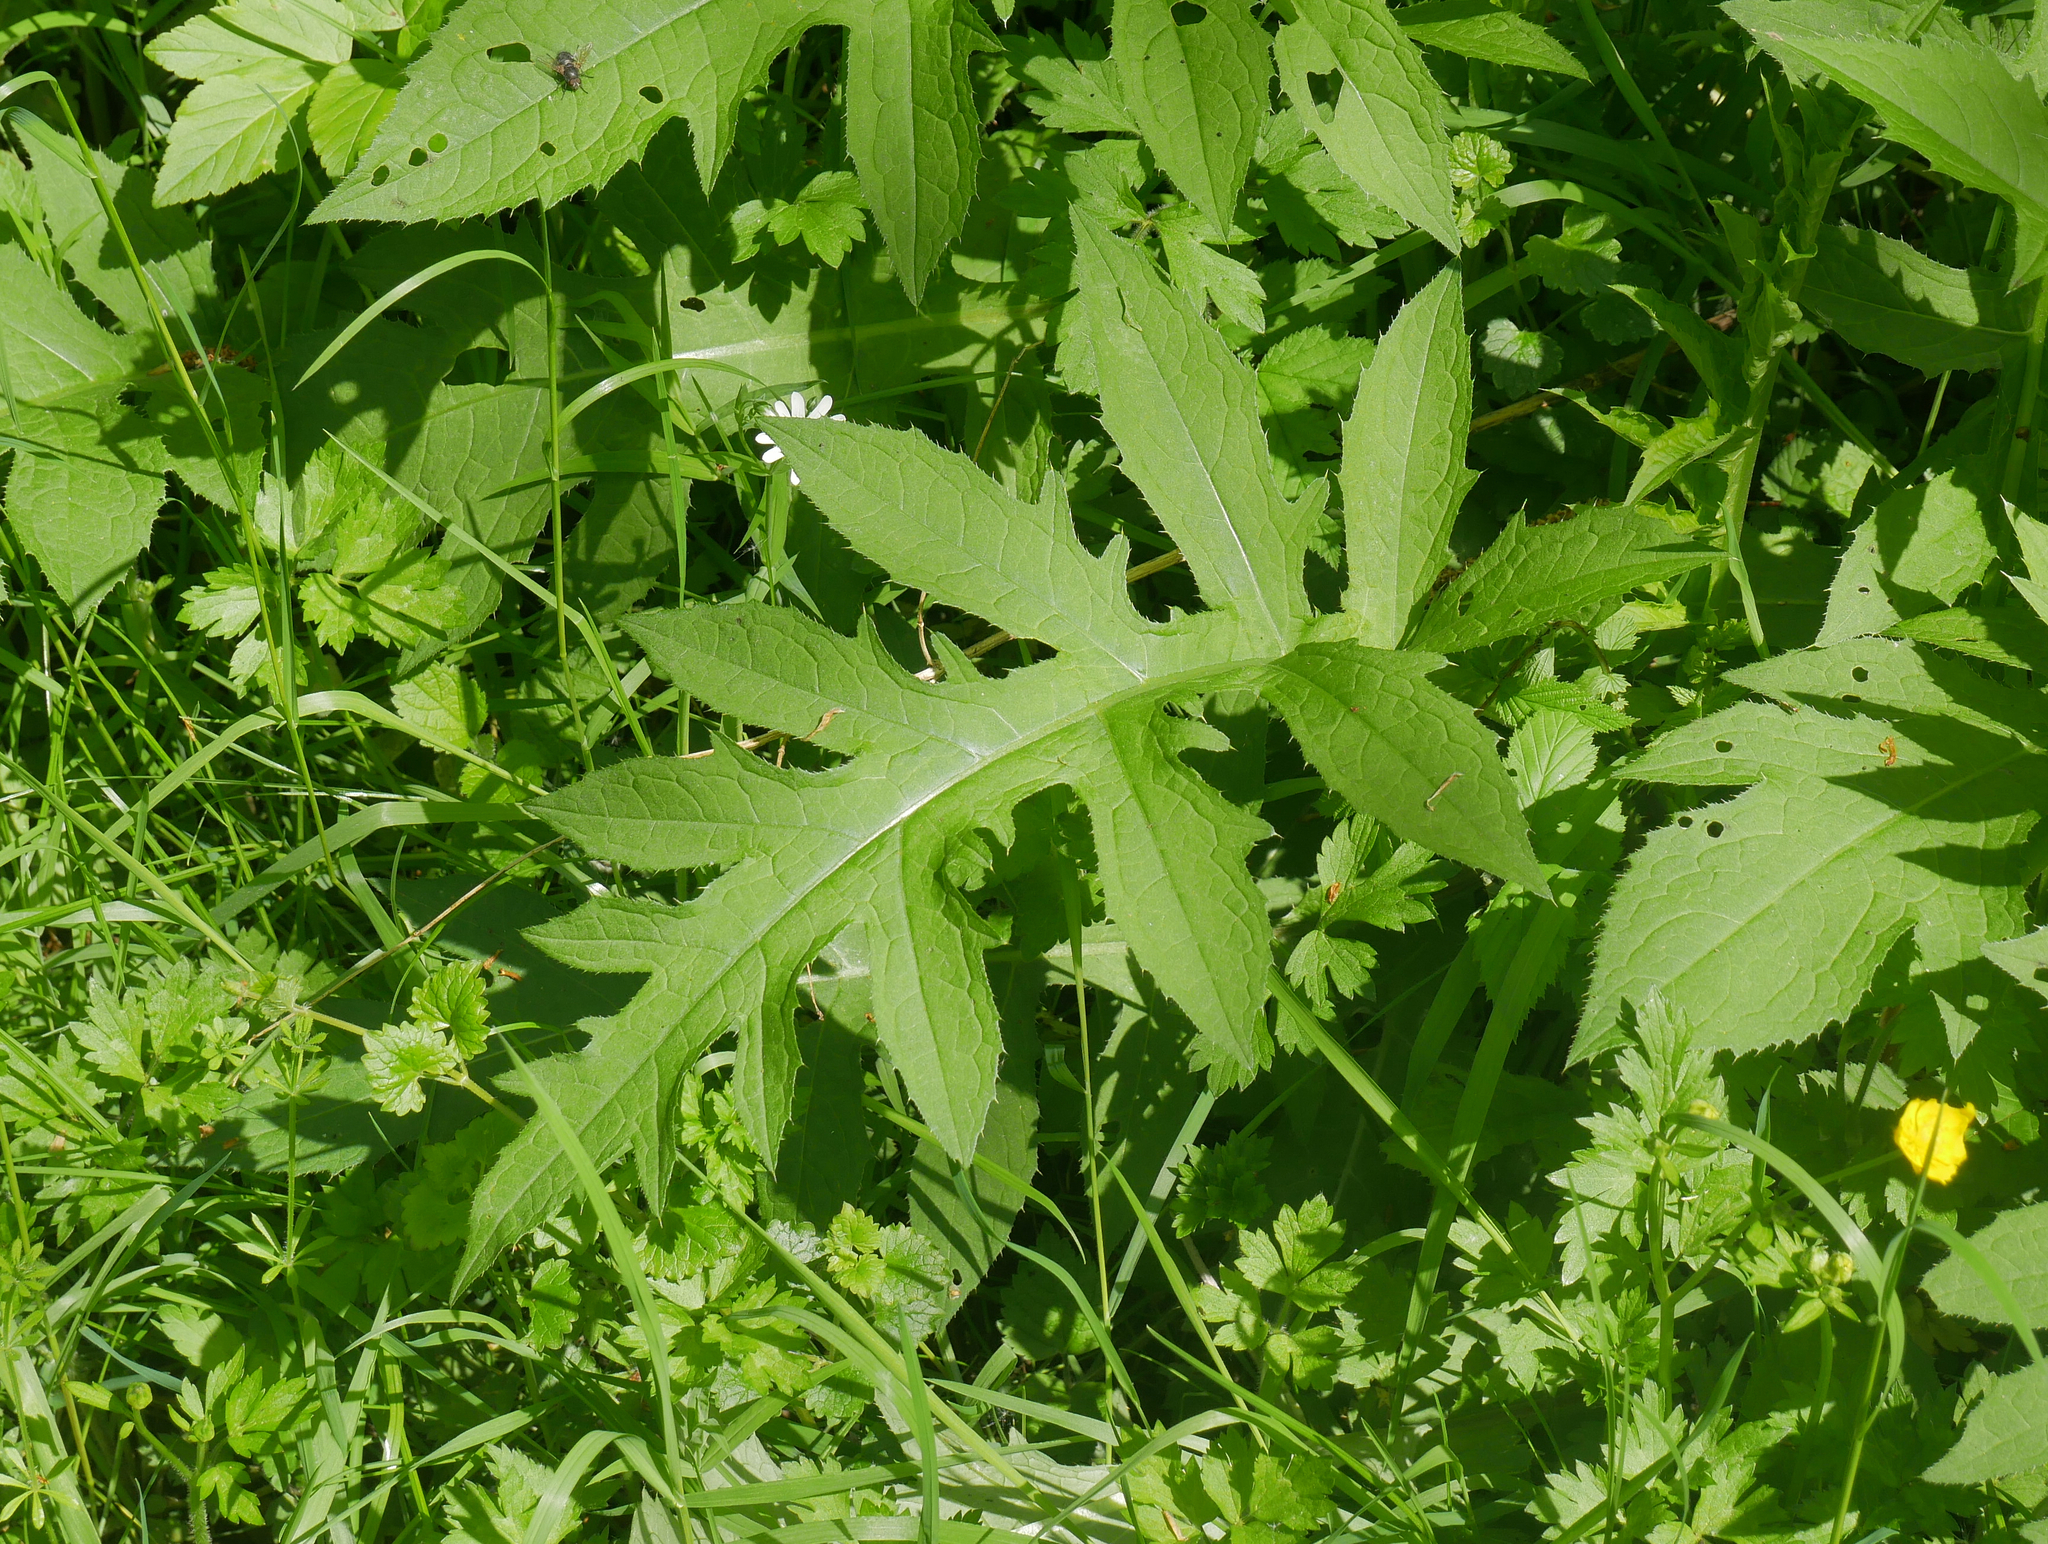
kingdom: Plantae
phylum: Tracheophyta
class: Magnoliopsida
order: Asterales
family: Asteraceae
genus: Cirsium
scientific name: Cirsium oleraceum
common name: Cabbage thistle
